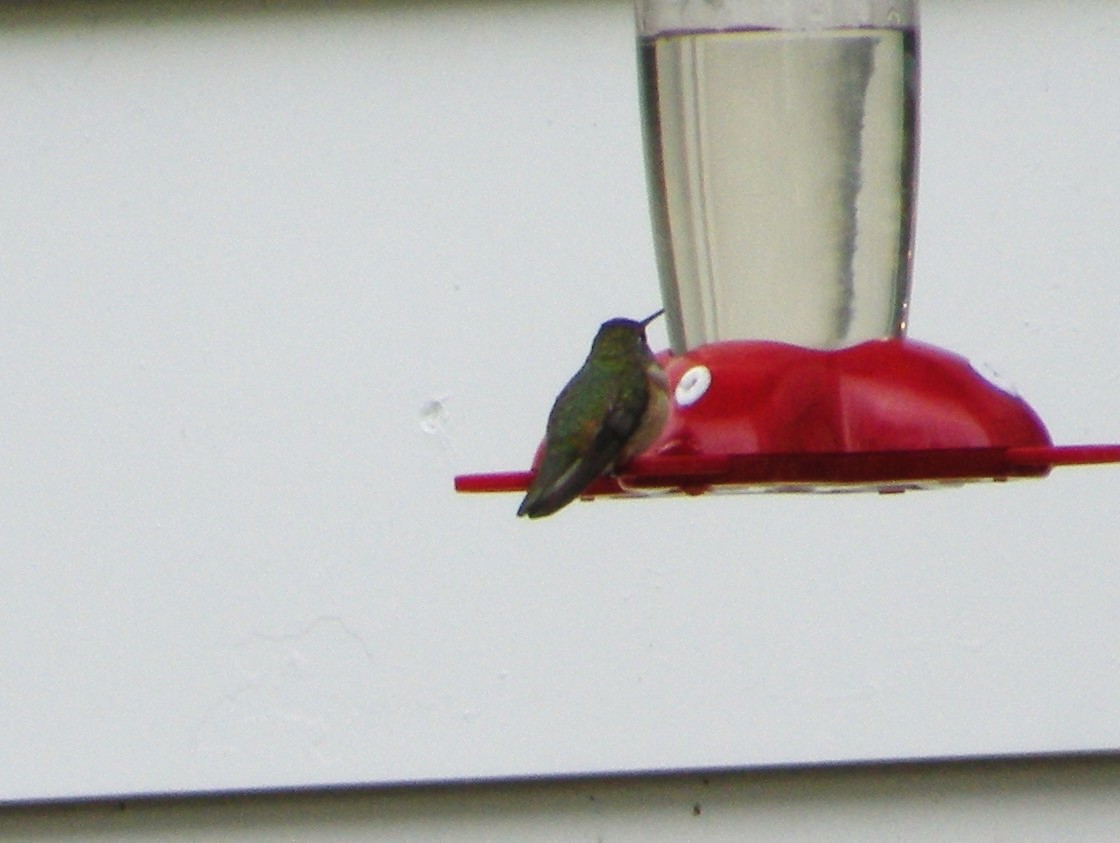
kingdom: Animalia
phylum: Chordata
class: Aves
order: Apodiformes
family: Trochilidae
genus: Selasphorus
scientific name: Selasphorus rufus
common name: Rufous hummingbird
